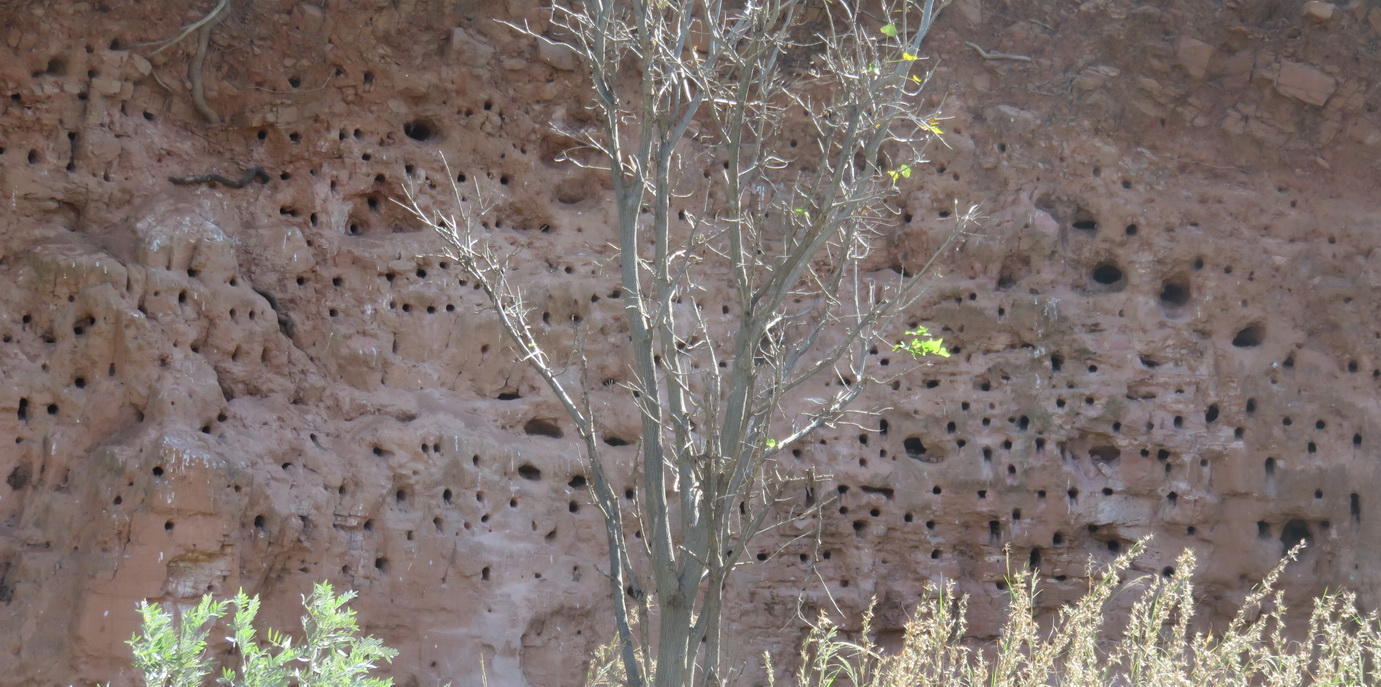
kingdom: Animalia
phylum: Chordata
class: Aves
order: Coraciiformes
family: Meropidae
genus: Merops
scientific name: Merops bullockoides
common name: White-fronted bee-eater
